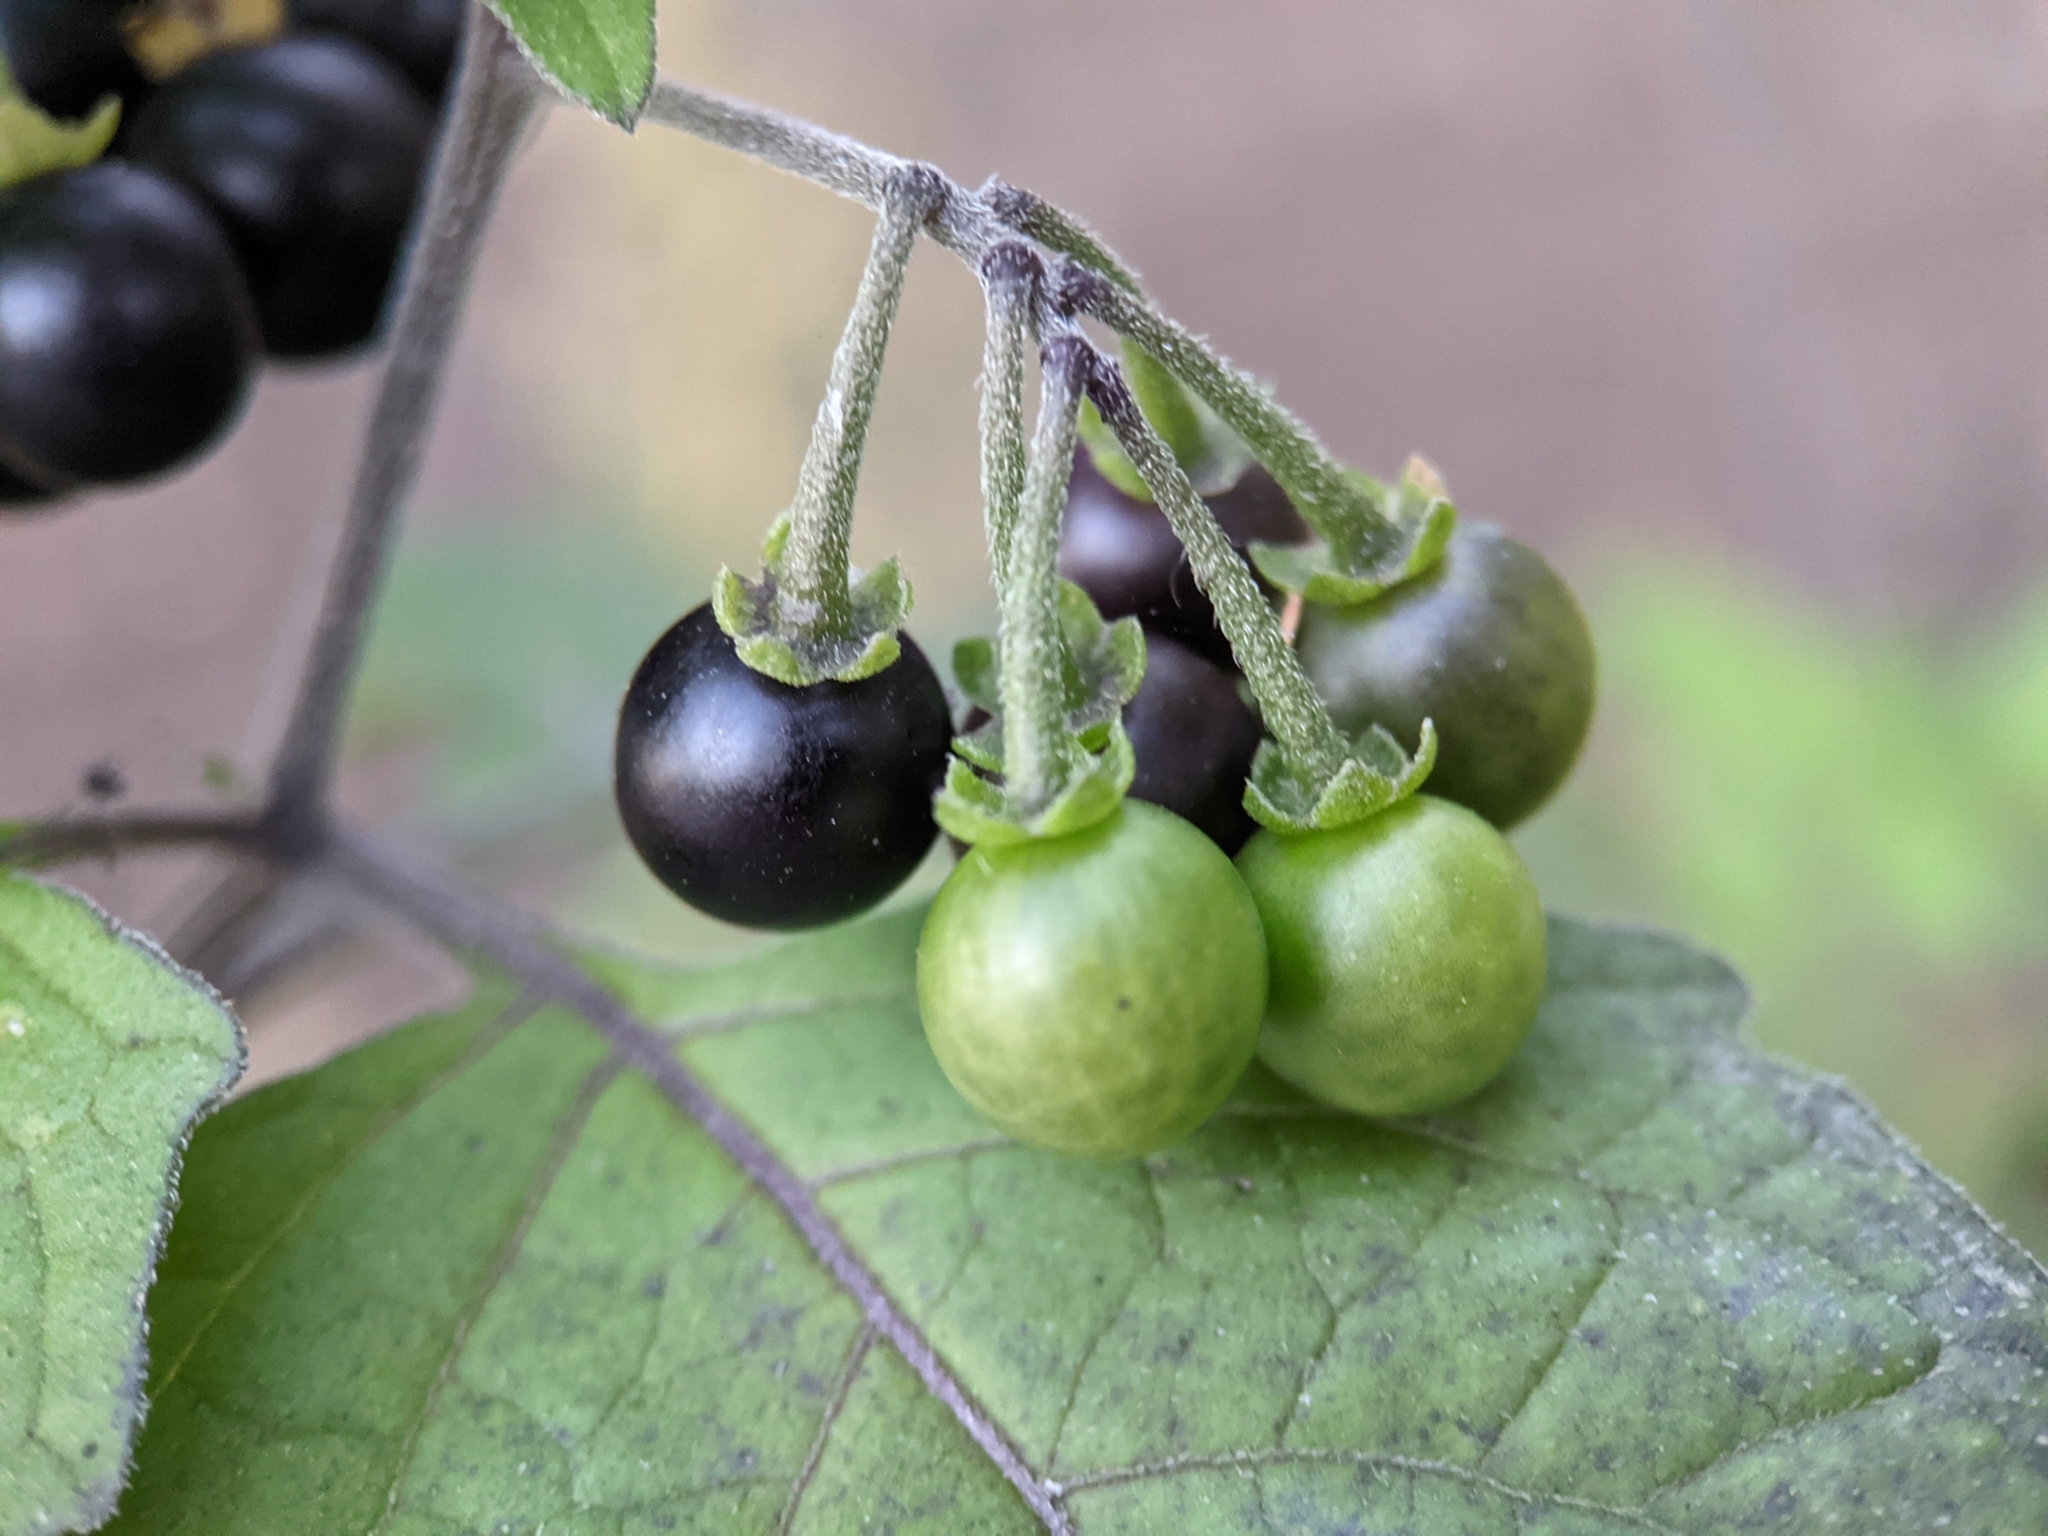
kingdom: Plantae
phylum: Tracheophyta
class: Magnoliopsida
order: Solanales
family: Solanaceae
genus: Solanum
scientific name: Solanum nigrum
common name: Black nightshade
